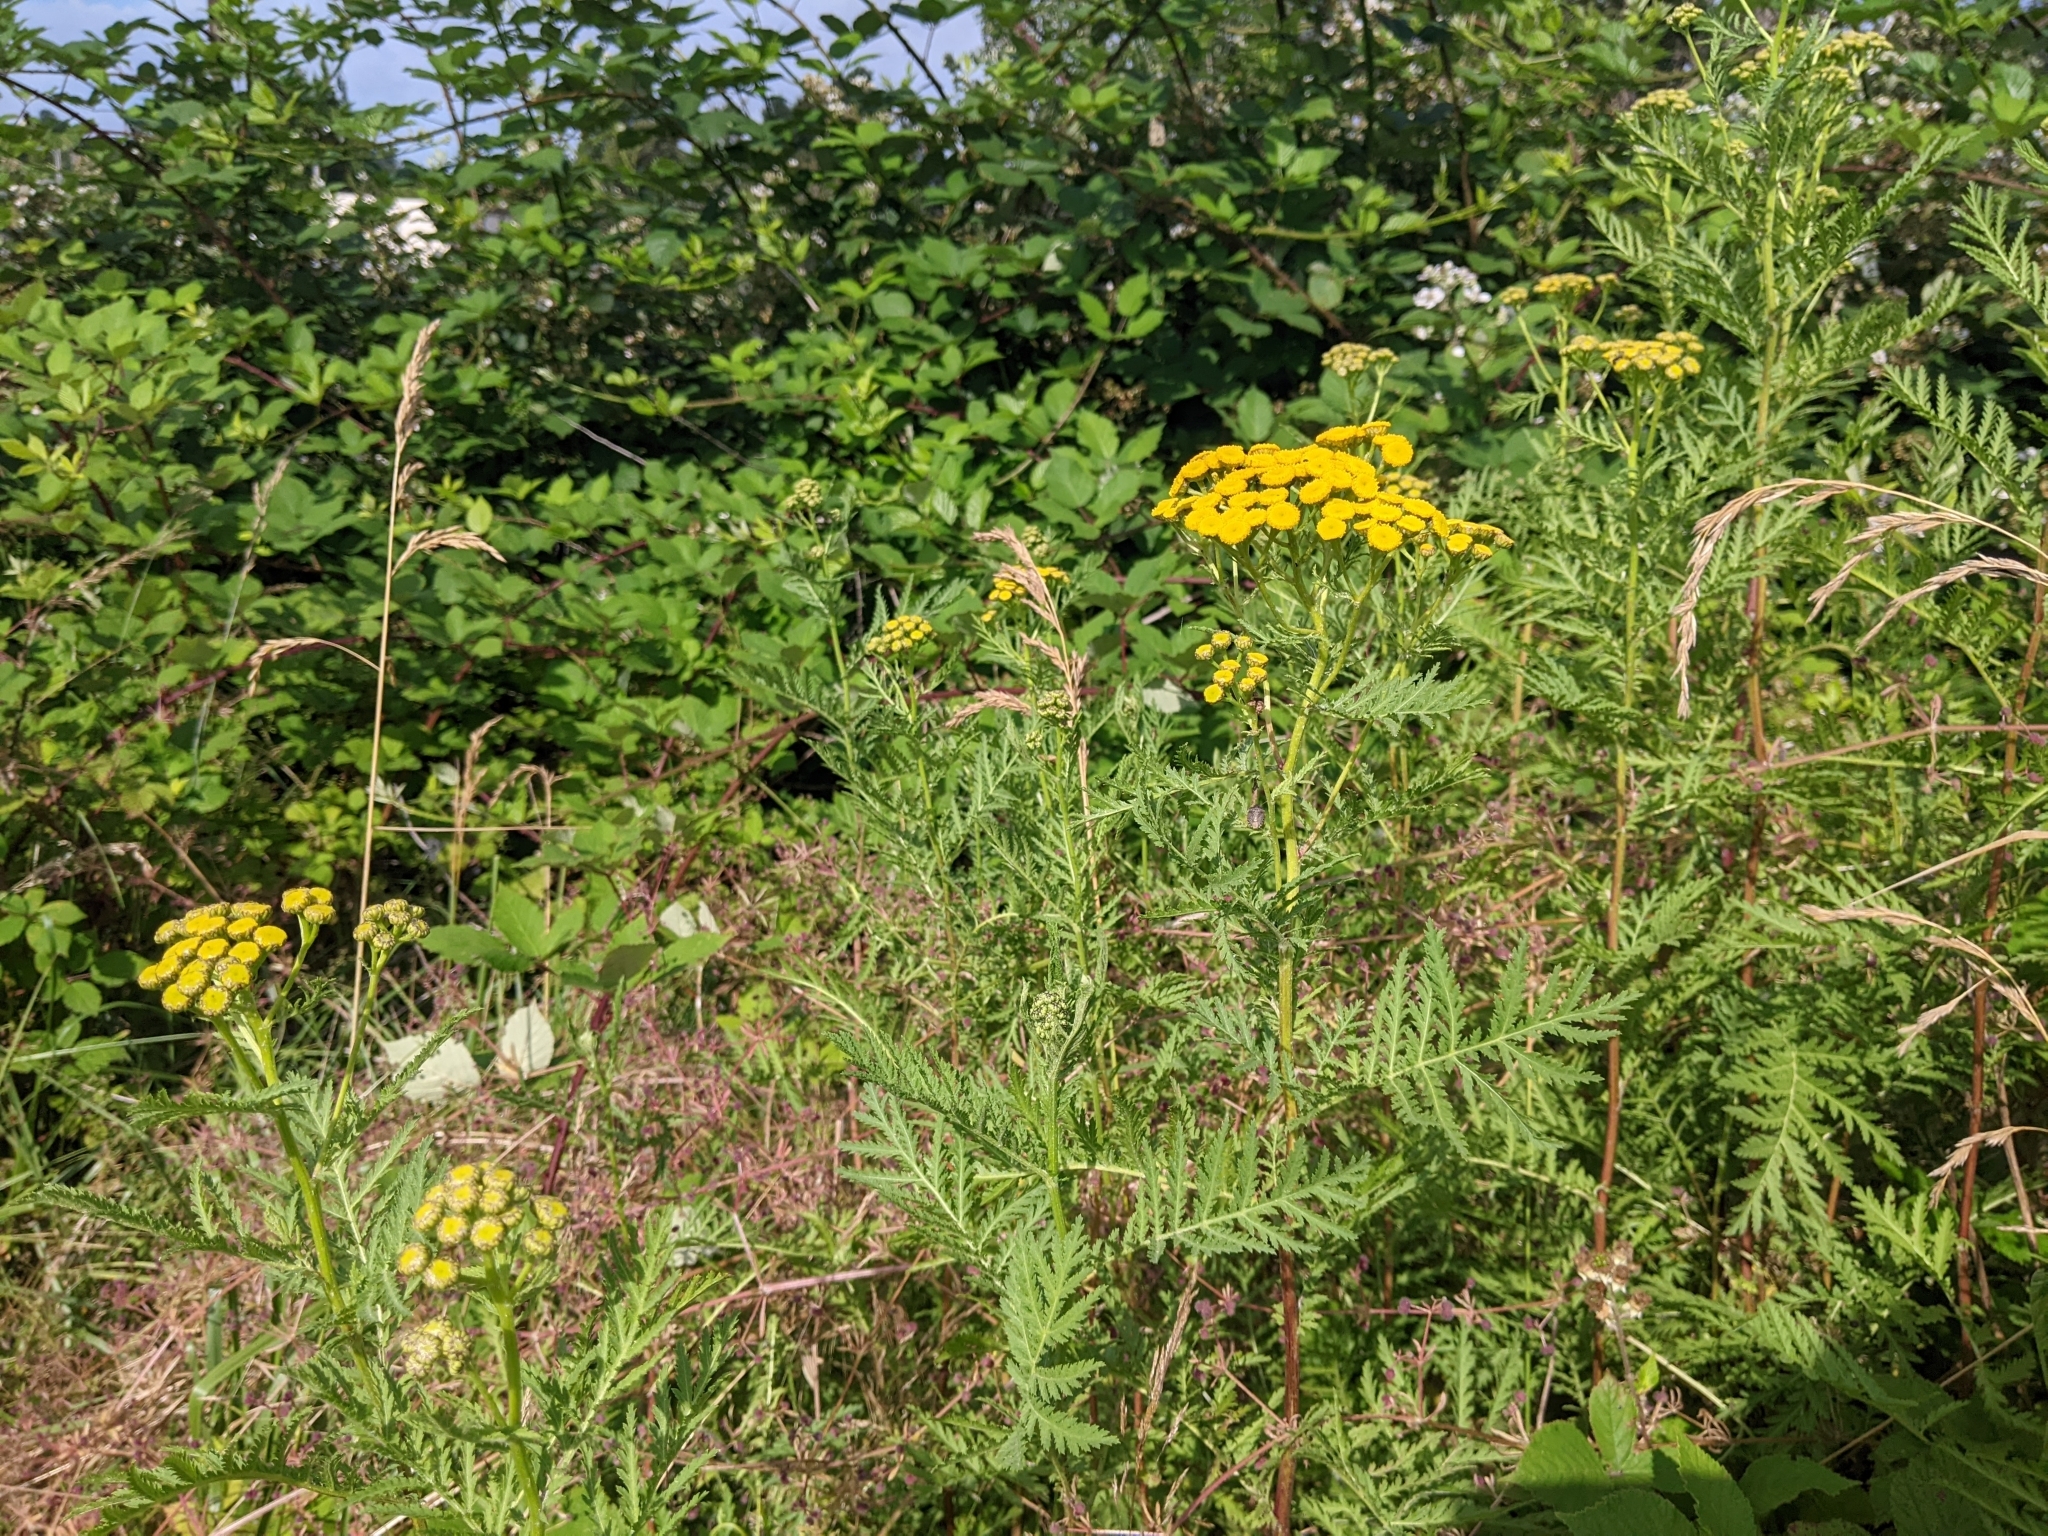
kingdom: Plantae
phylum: Tracheophyta
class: Magnoliopsida
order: Asterales
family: Asteraceae
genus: Tanacetum
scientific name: Tanacetum vulgare
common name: Common tansy
